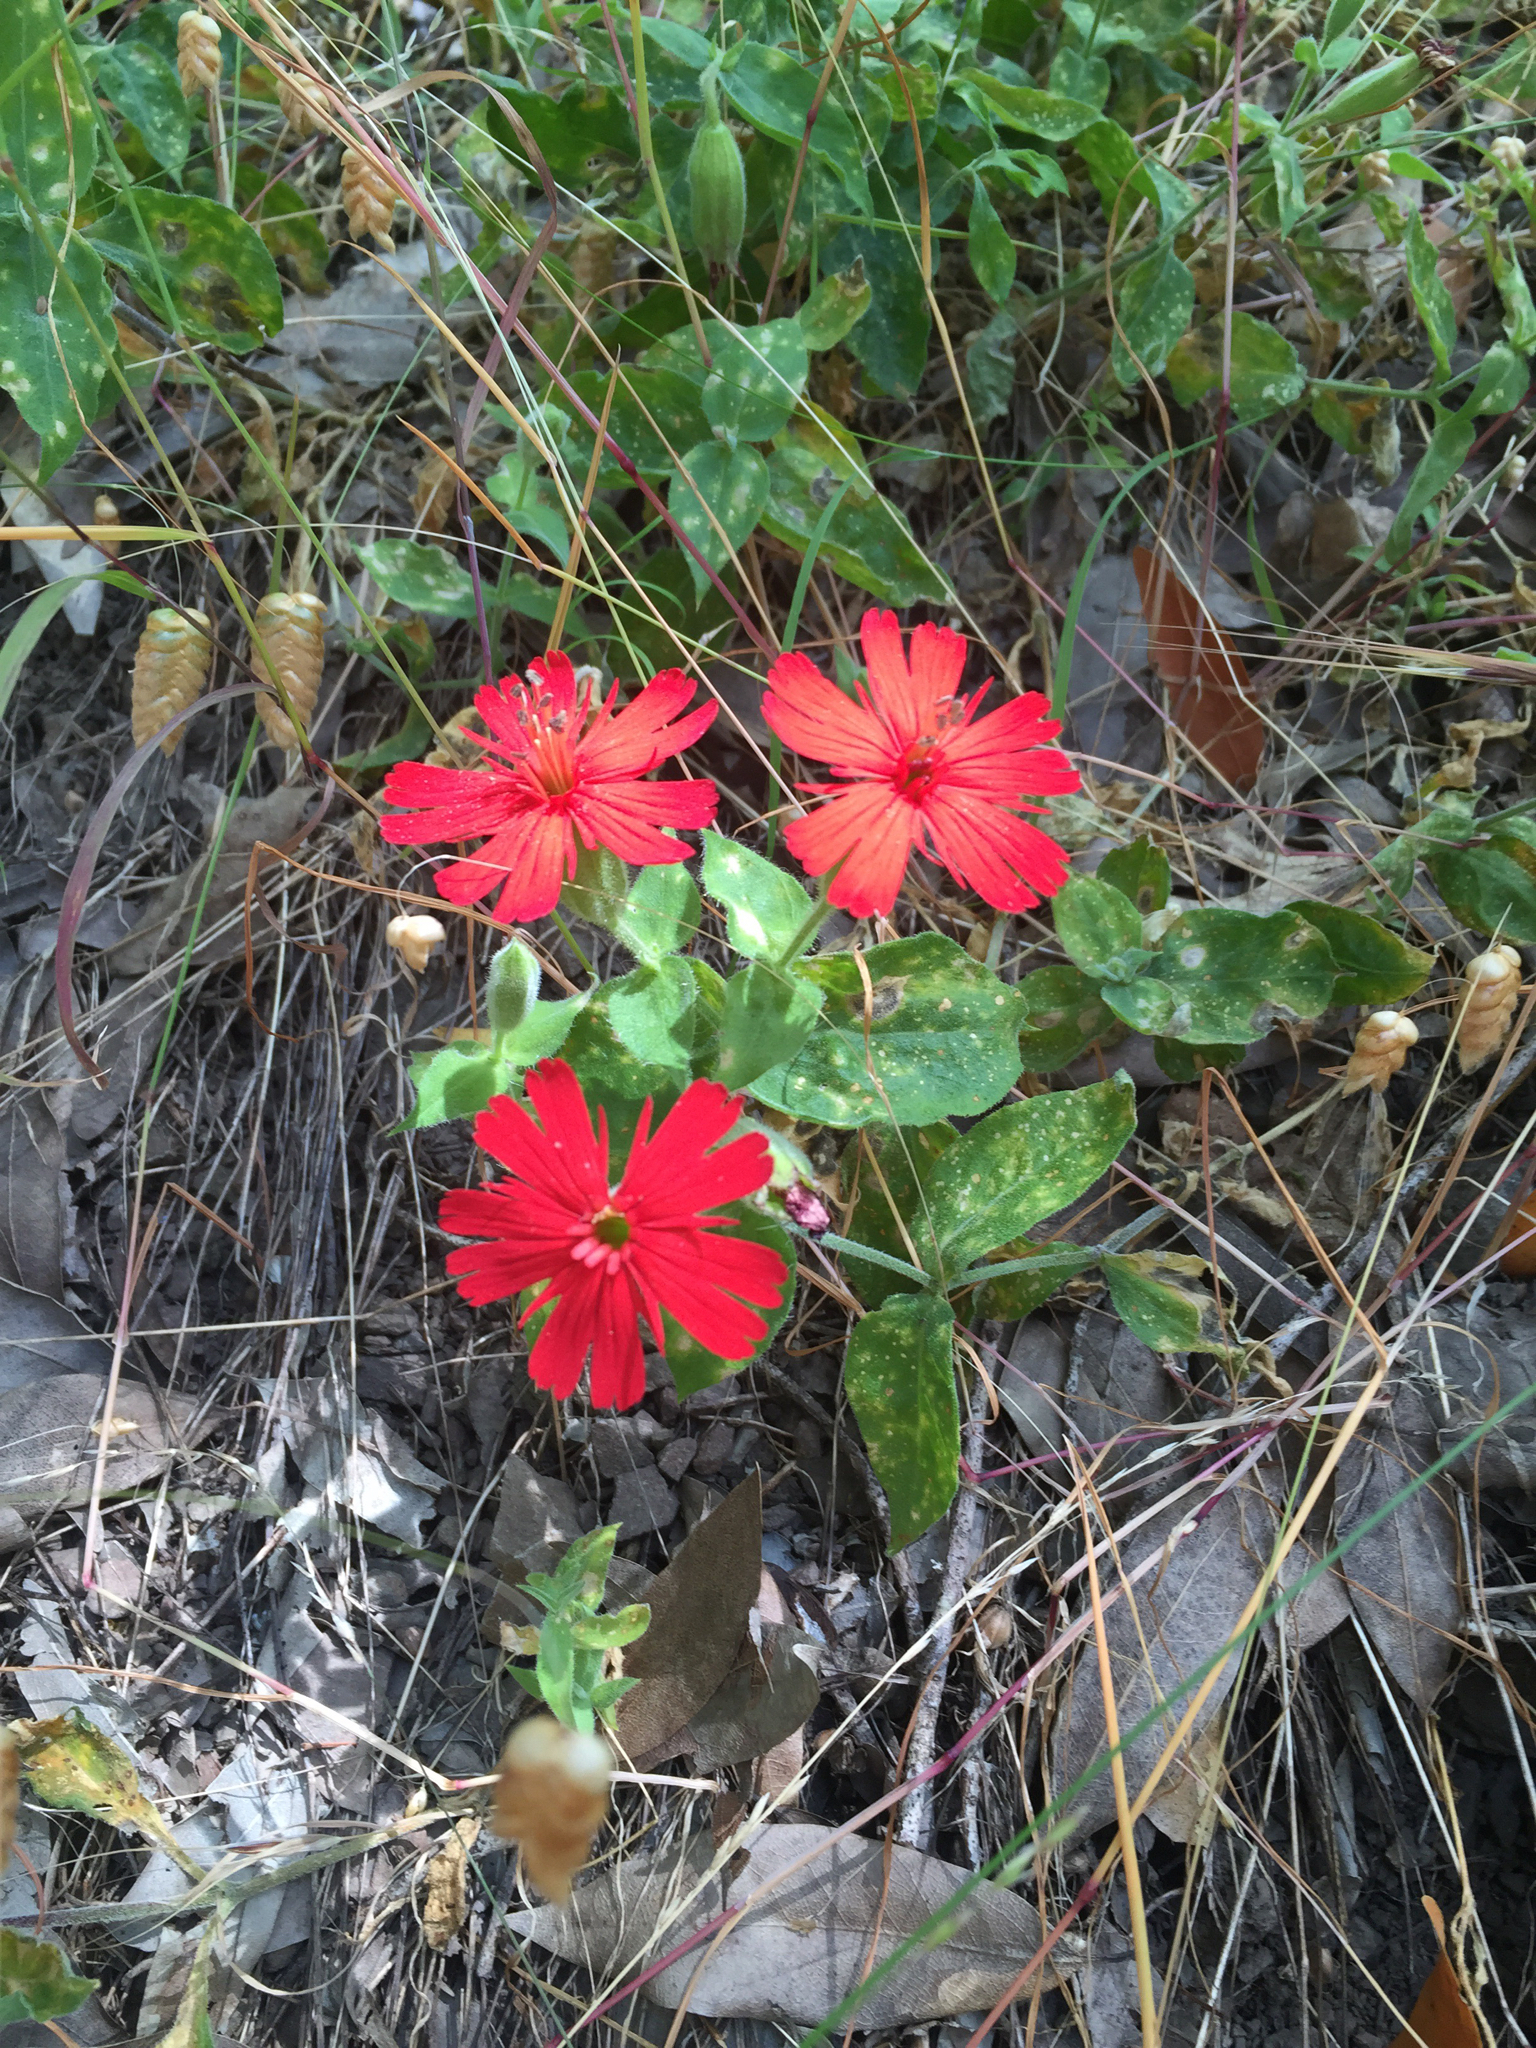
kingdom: Plantae
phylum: Tracheophyta
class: Magnoliopsida
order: Caryophyllales
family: Caryophyllaceae
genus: Silene
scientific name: Silene laciniata
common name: Indian-pink
